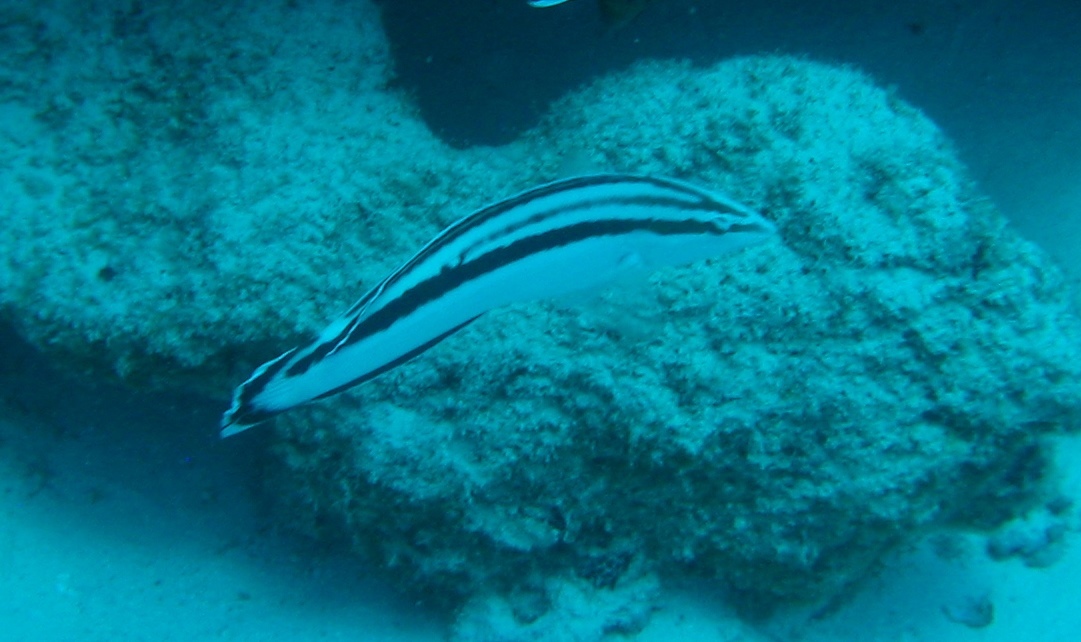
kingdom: Animalia
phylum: Chordata
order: Perciformes
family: Labridae
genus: Coris
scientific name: Coris flavovittata
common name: Yellowstripe coris
